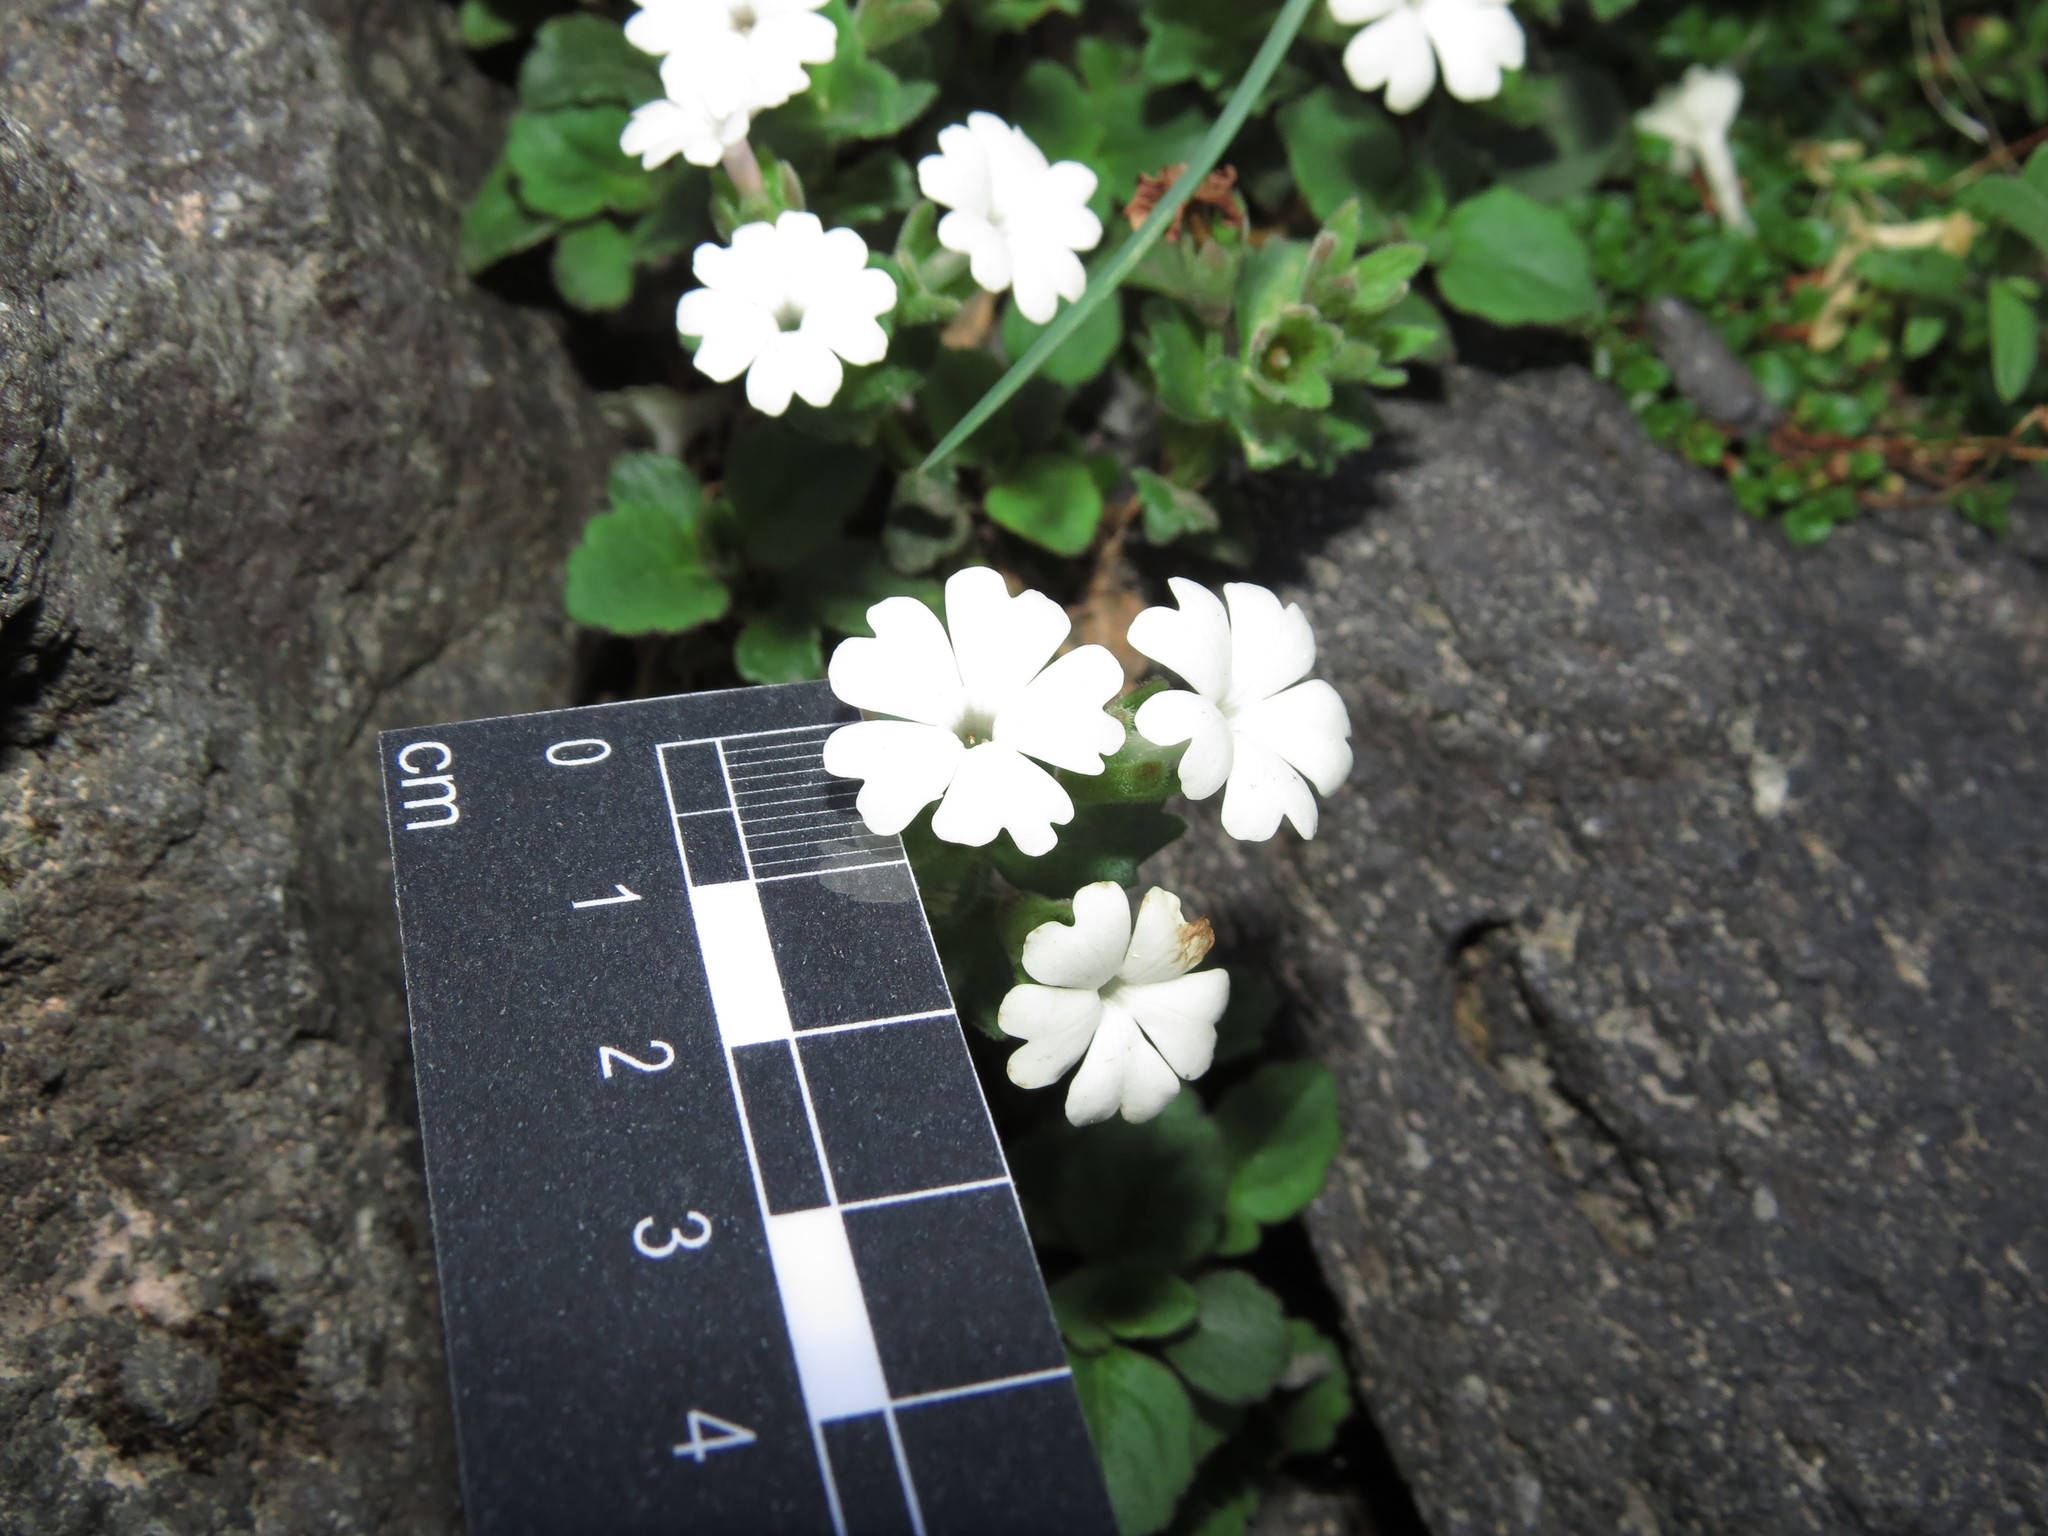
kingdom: Plantae
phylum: Tracheophyta
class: Magnoliopsida
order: Lamiales
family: Plantaginaceae
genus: Ourisia
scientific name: Ourisia fragrans
